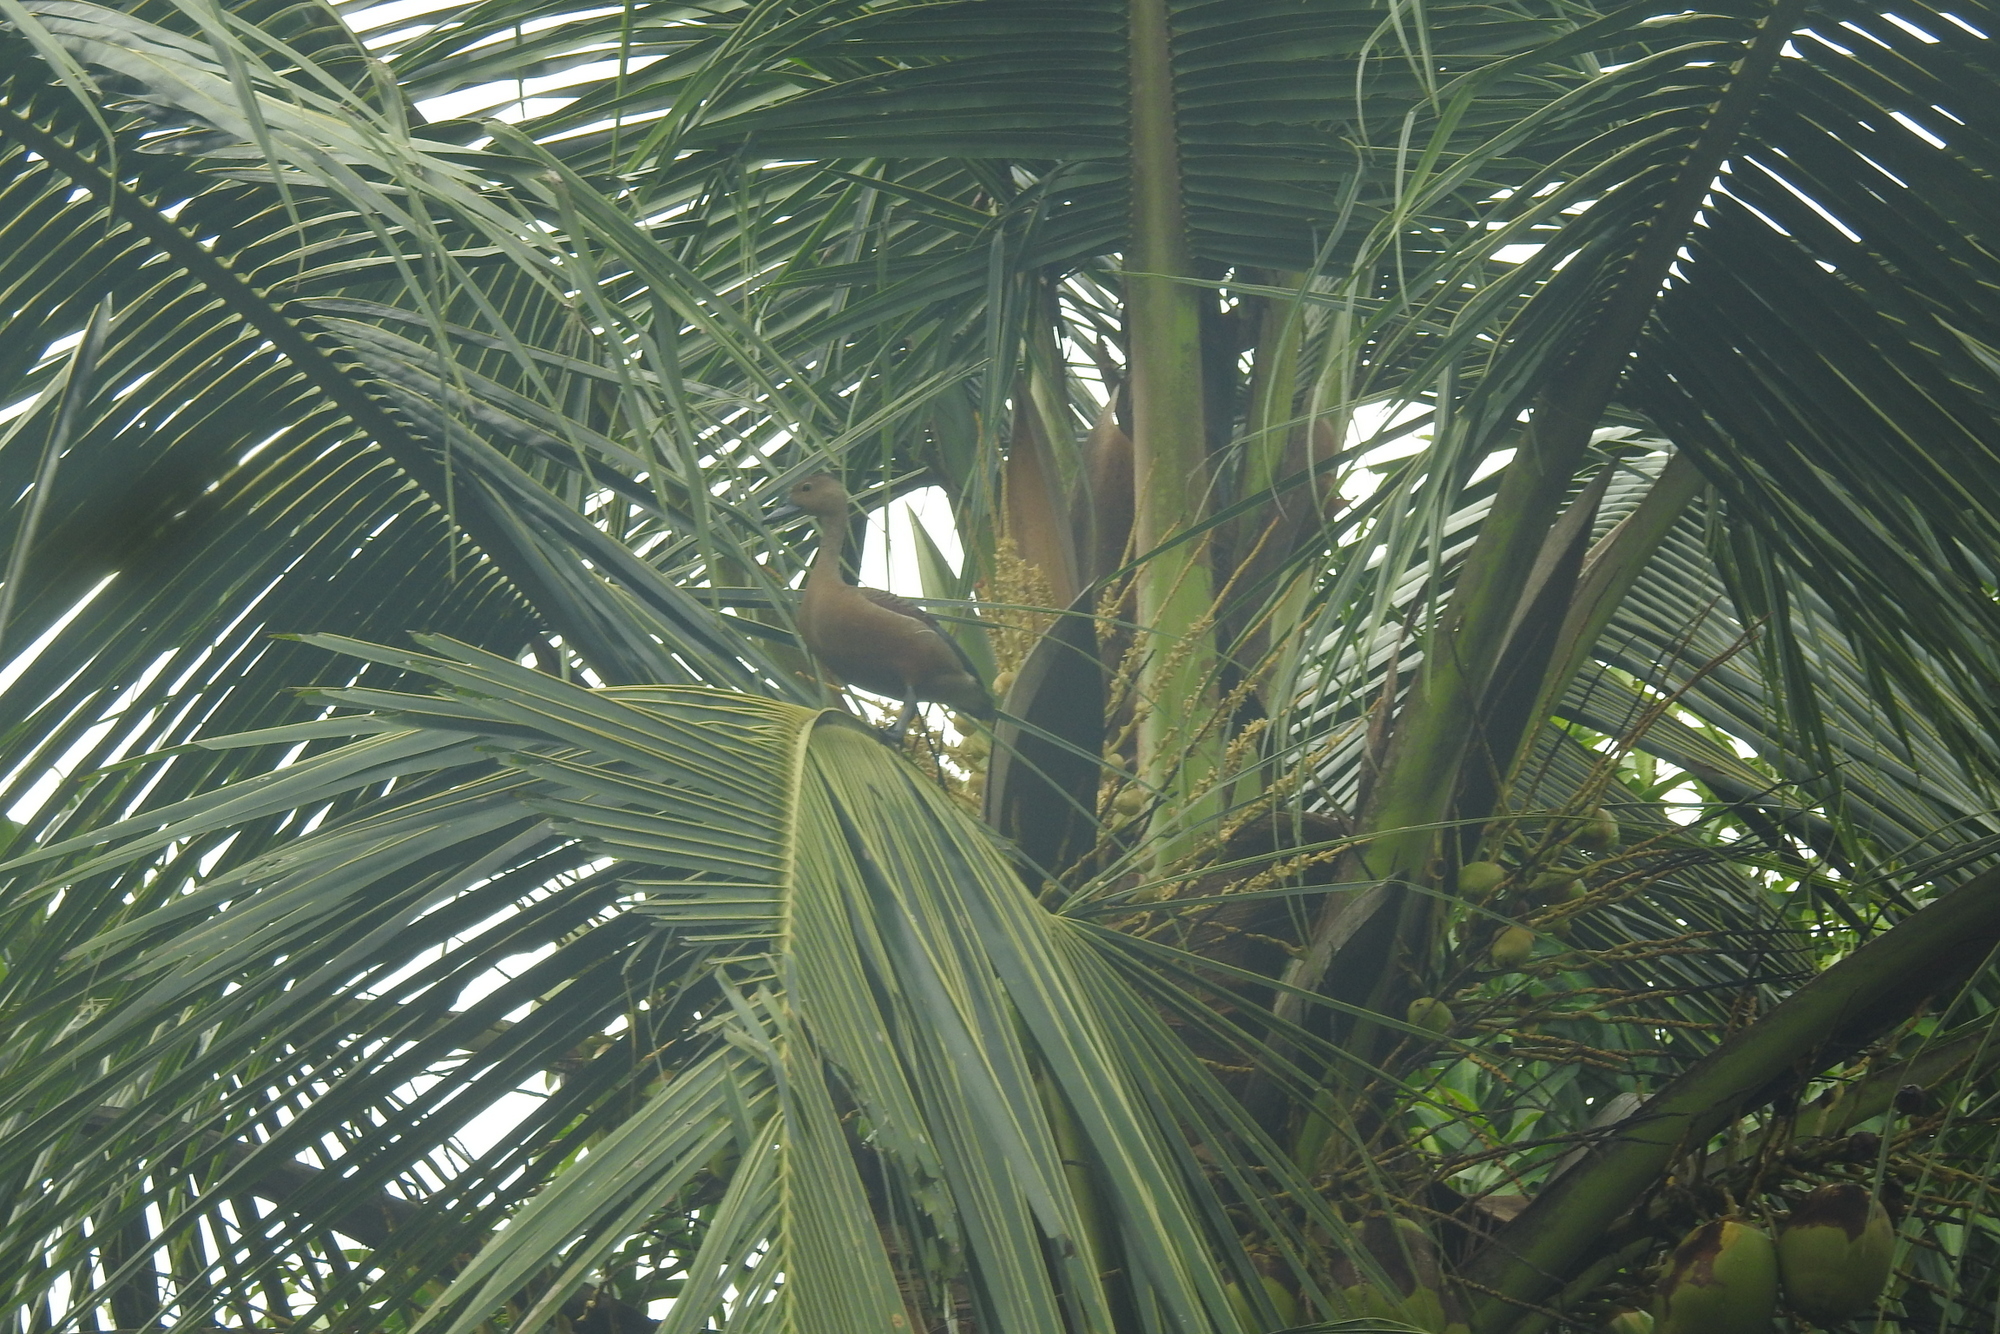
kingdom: Animalia
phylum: Chordata
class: Aves
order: Anseriformes
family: Anatidae
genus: Dendrocygna
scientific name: Dendrocygna javanica
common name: Lesser whistling-duck
